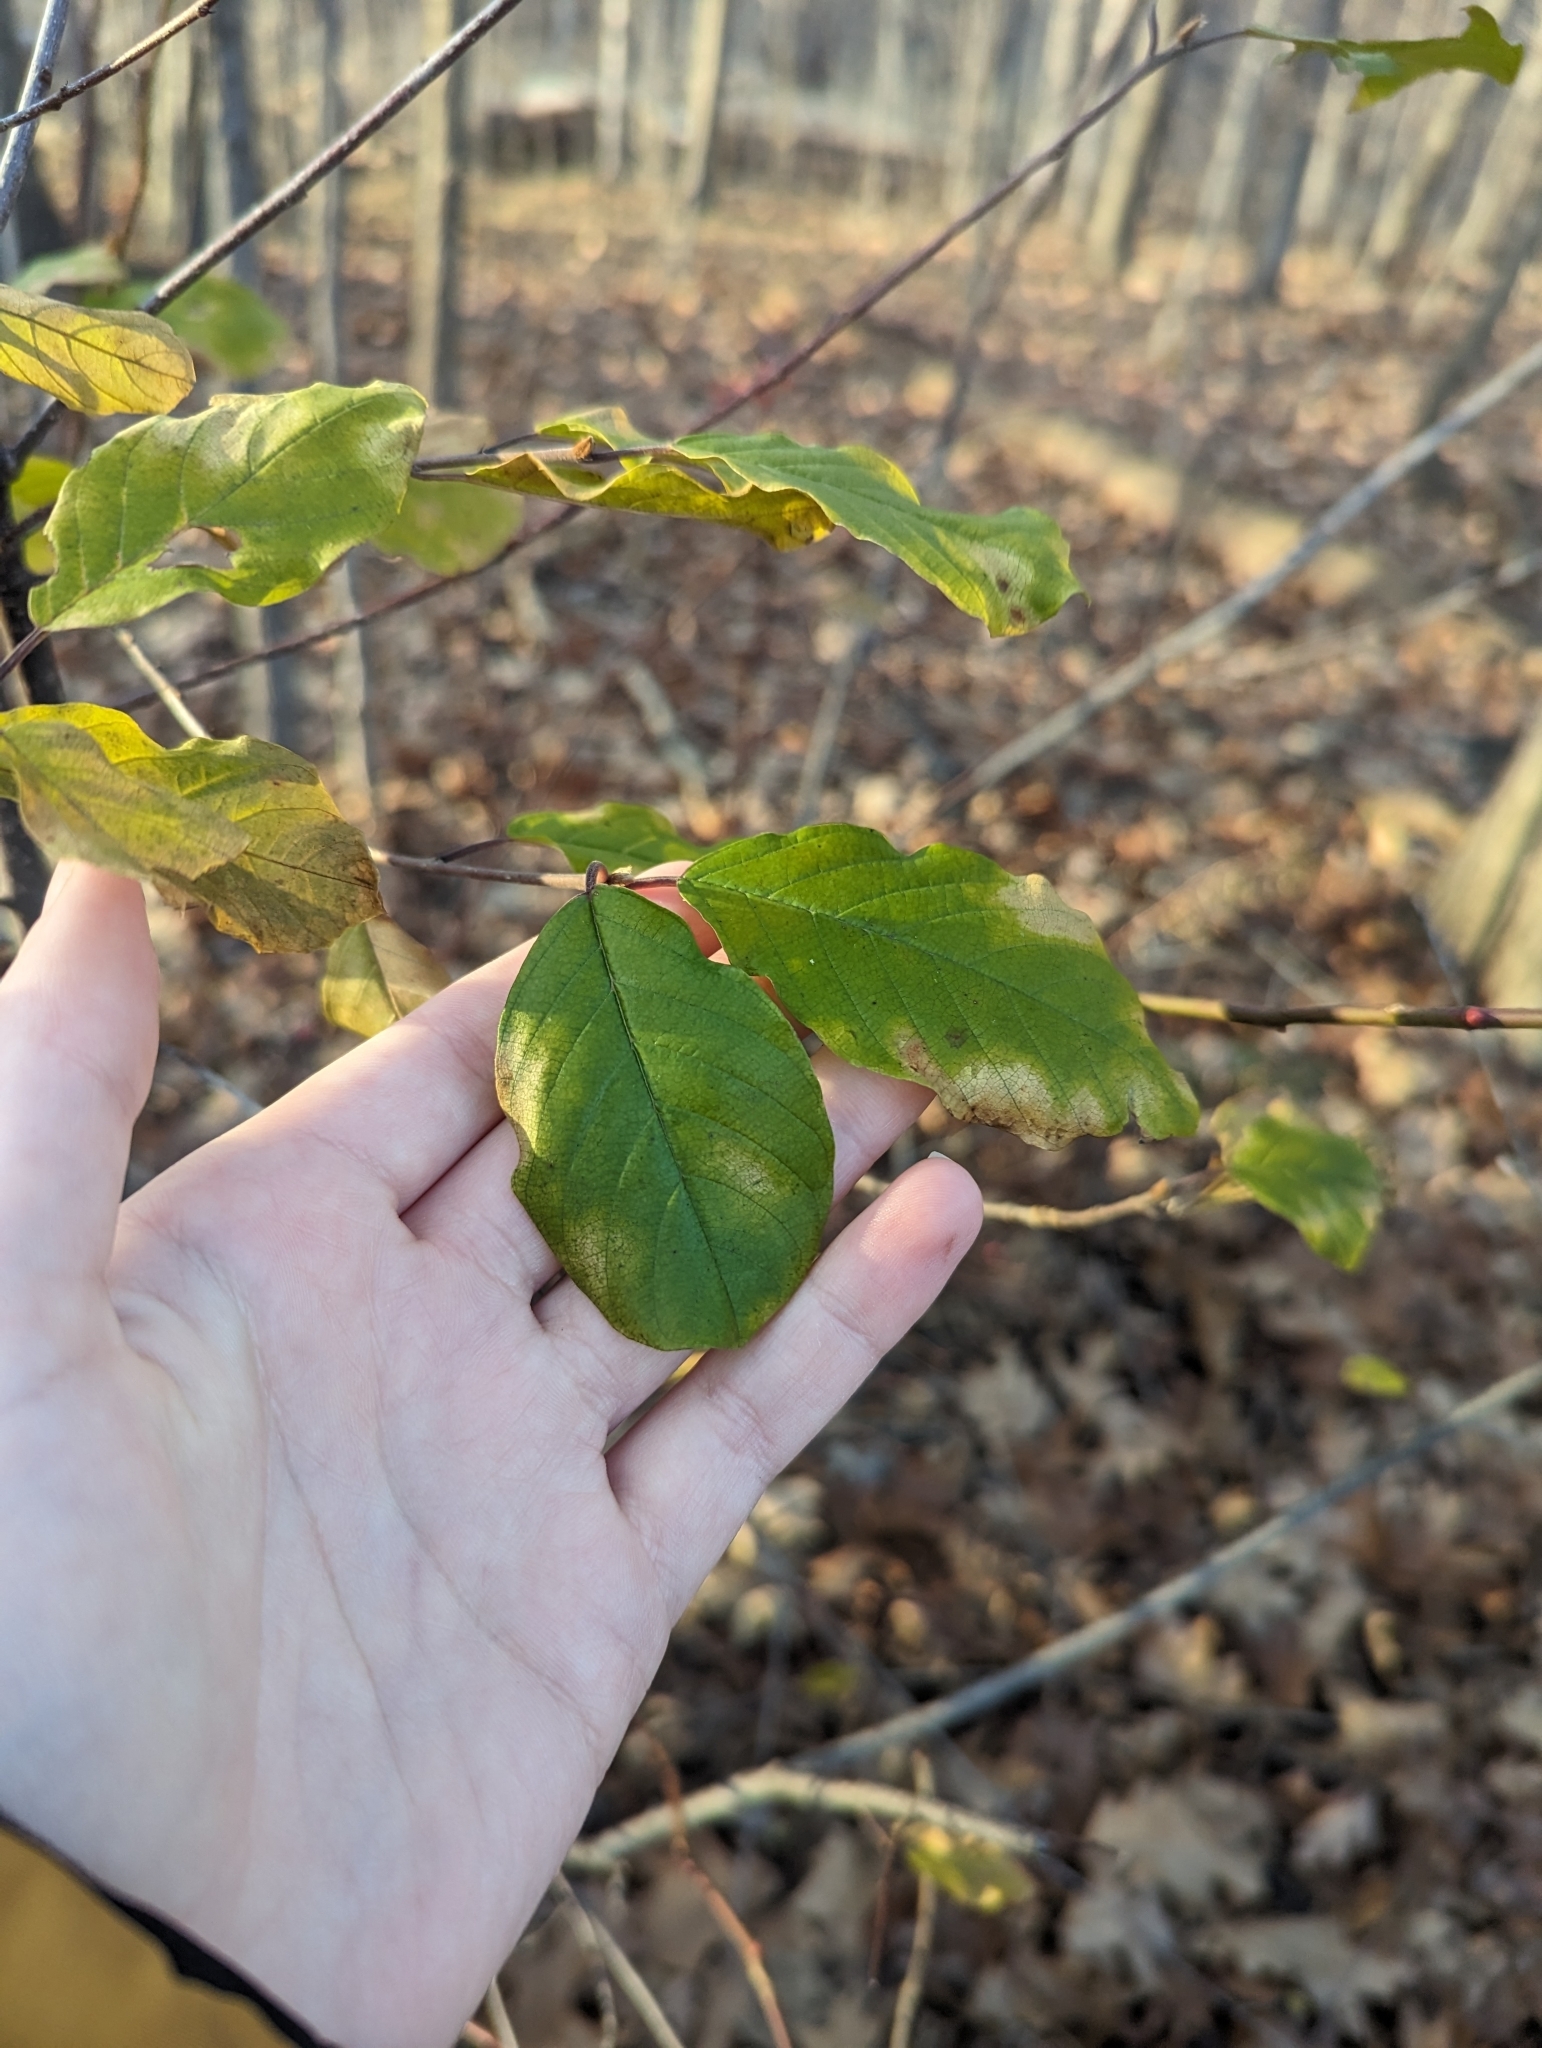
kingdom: Plantae
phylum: Tracheophyta
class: Magnoliopsida
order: Rosales
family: Rhamnaceae
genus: Frangula
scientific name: Frangula alnus
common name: Alder buckthorn
